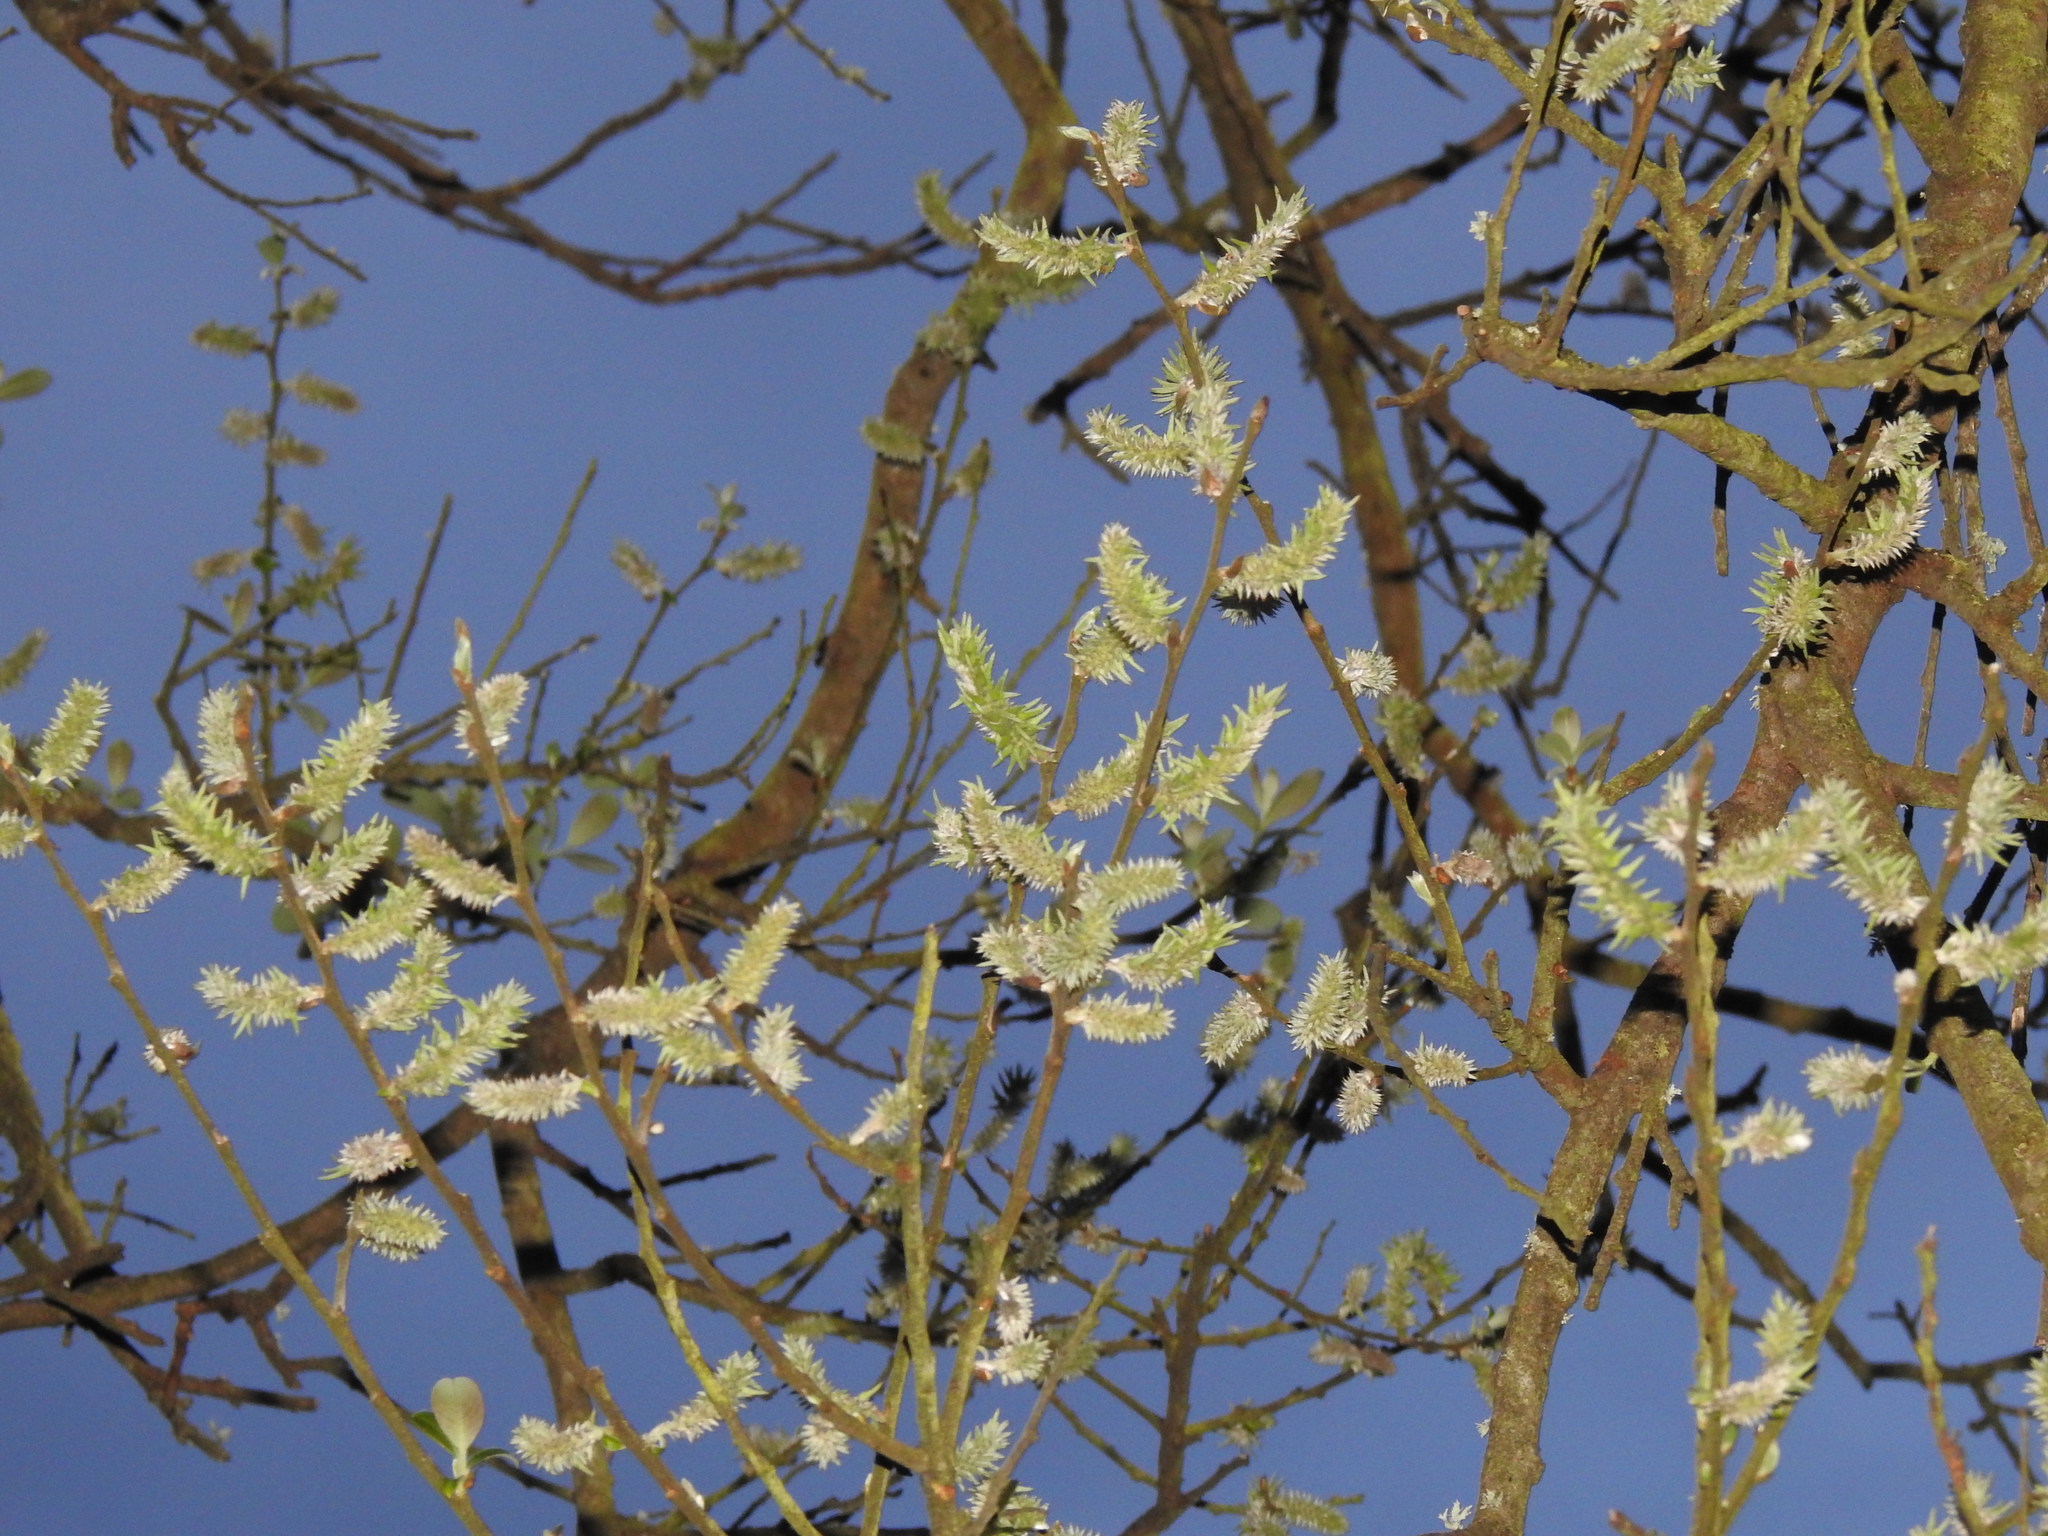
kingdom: Plantae
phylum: Tracheophyta
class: Magnoliopsida
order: Malpighiales
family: Salicaceae
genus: Salix
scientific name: Salix atrocinerea
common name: Rusty willow
